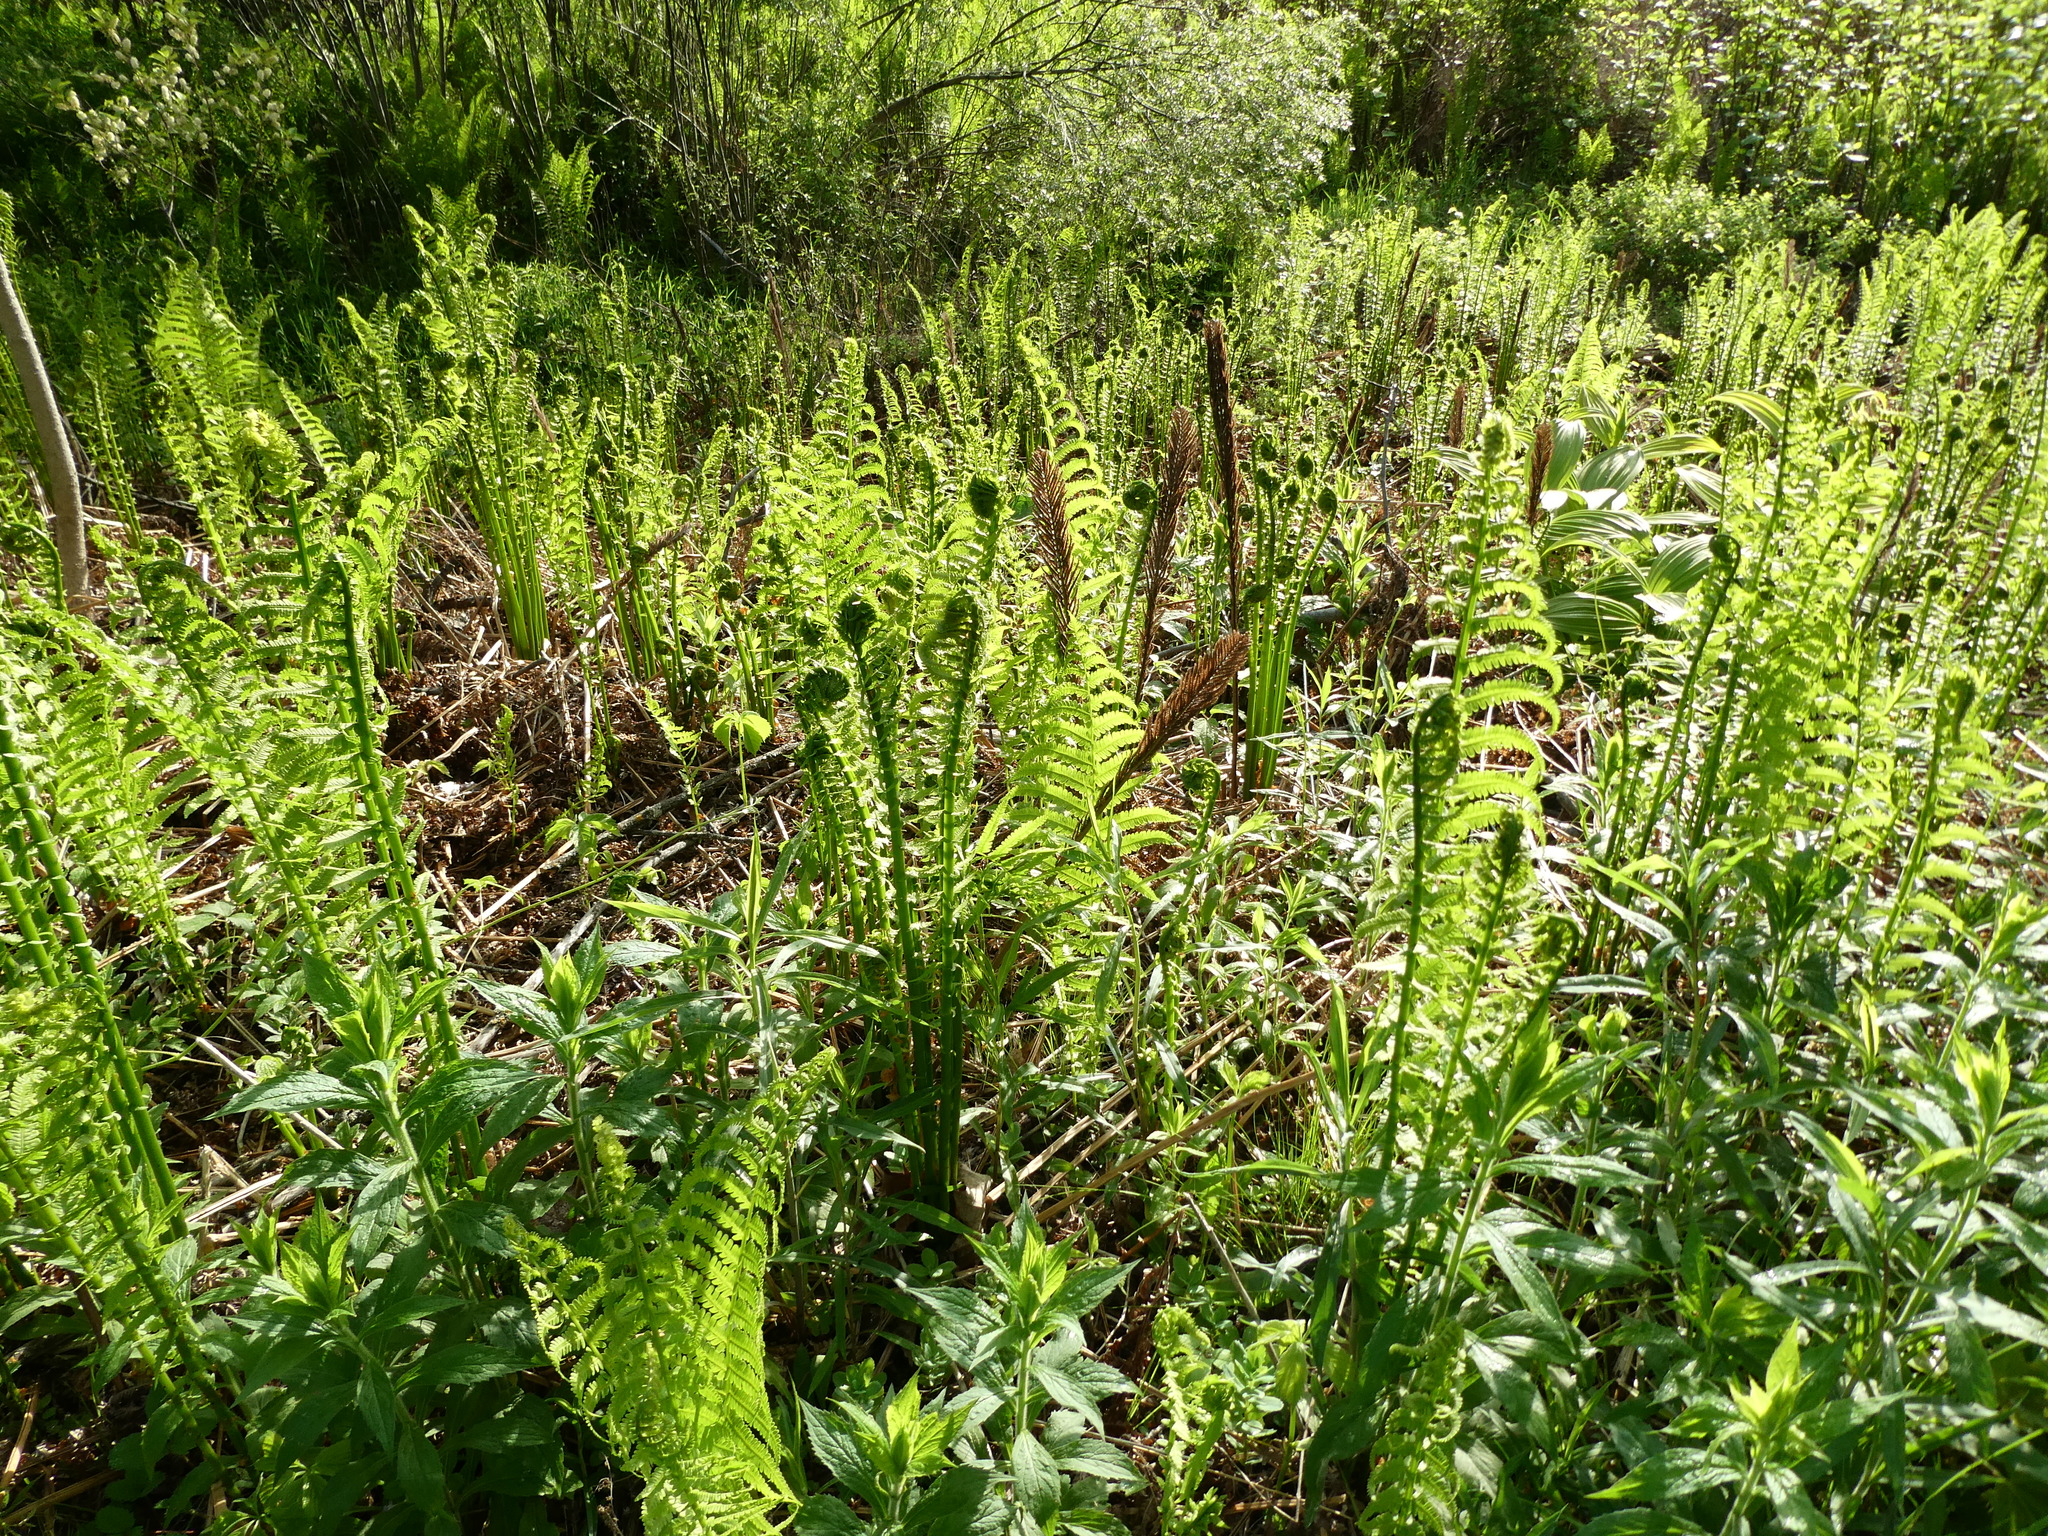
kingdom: Plantae
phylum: Tracheophyta
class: Polypodiopsida
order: Polypodiales
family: Onocleaceae
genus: Matteuccia
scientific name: Matteuccia struthiopteris
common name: Ostrich fern
